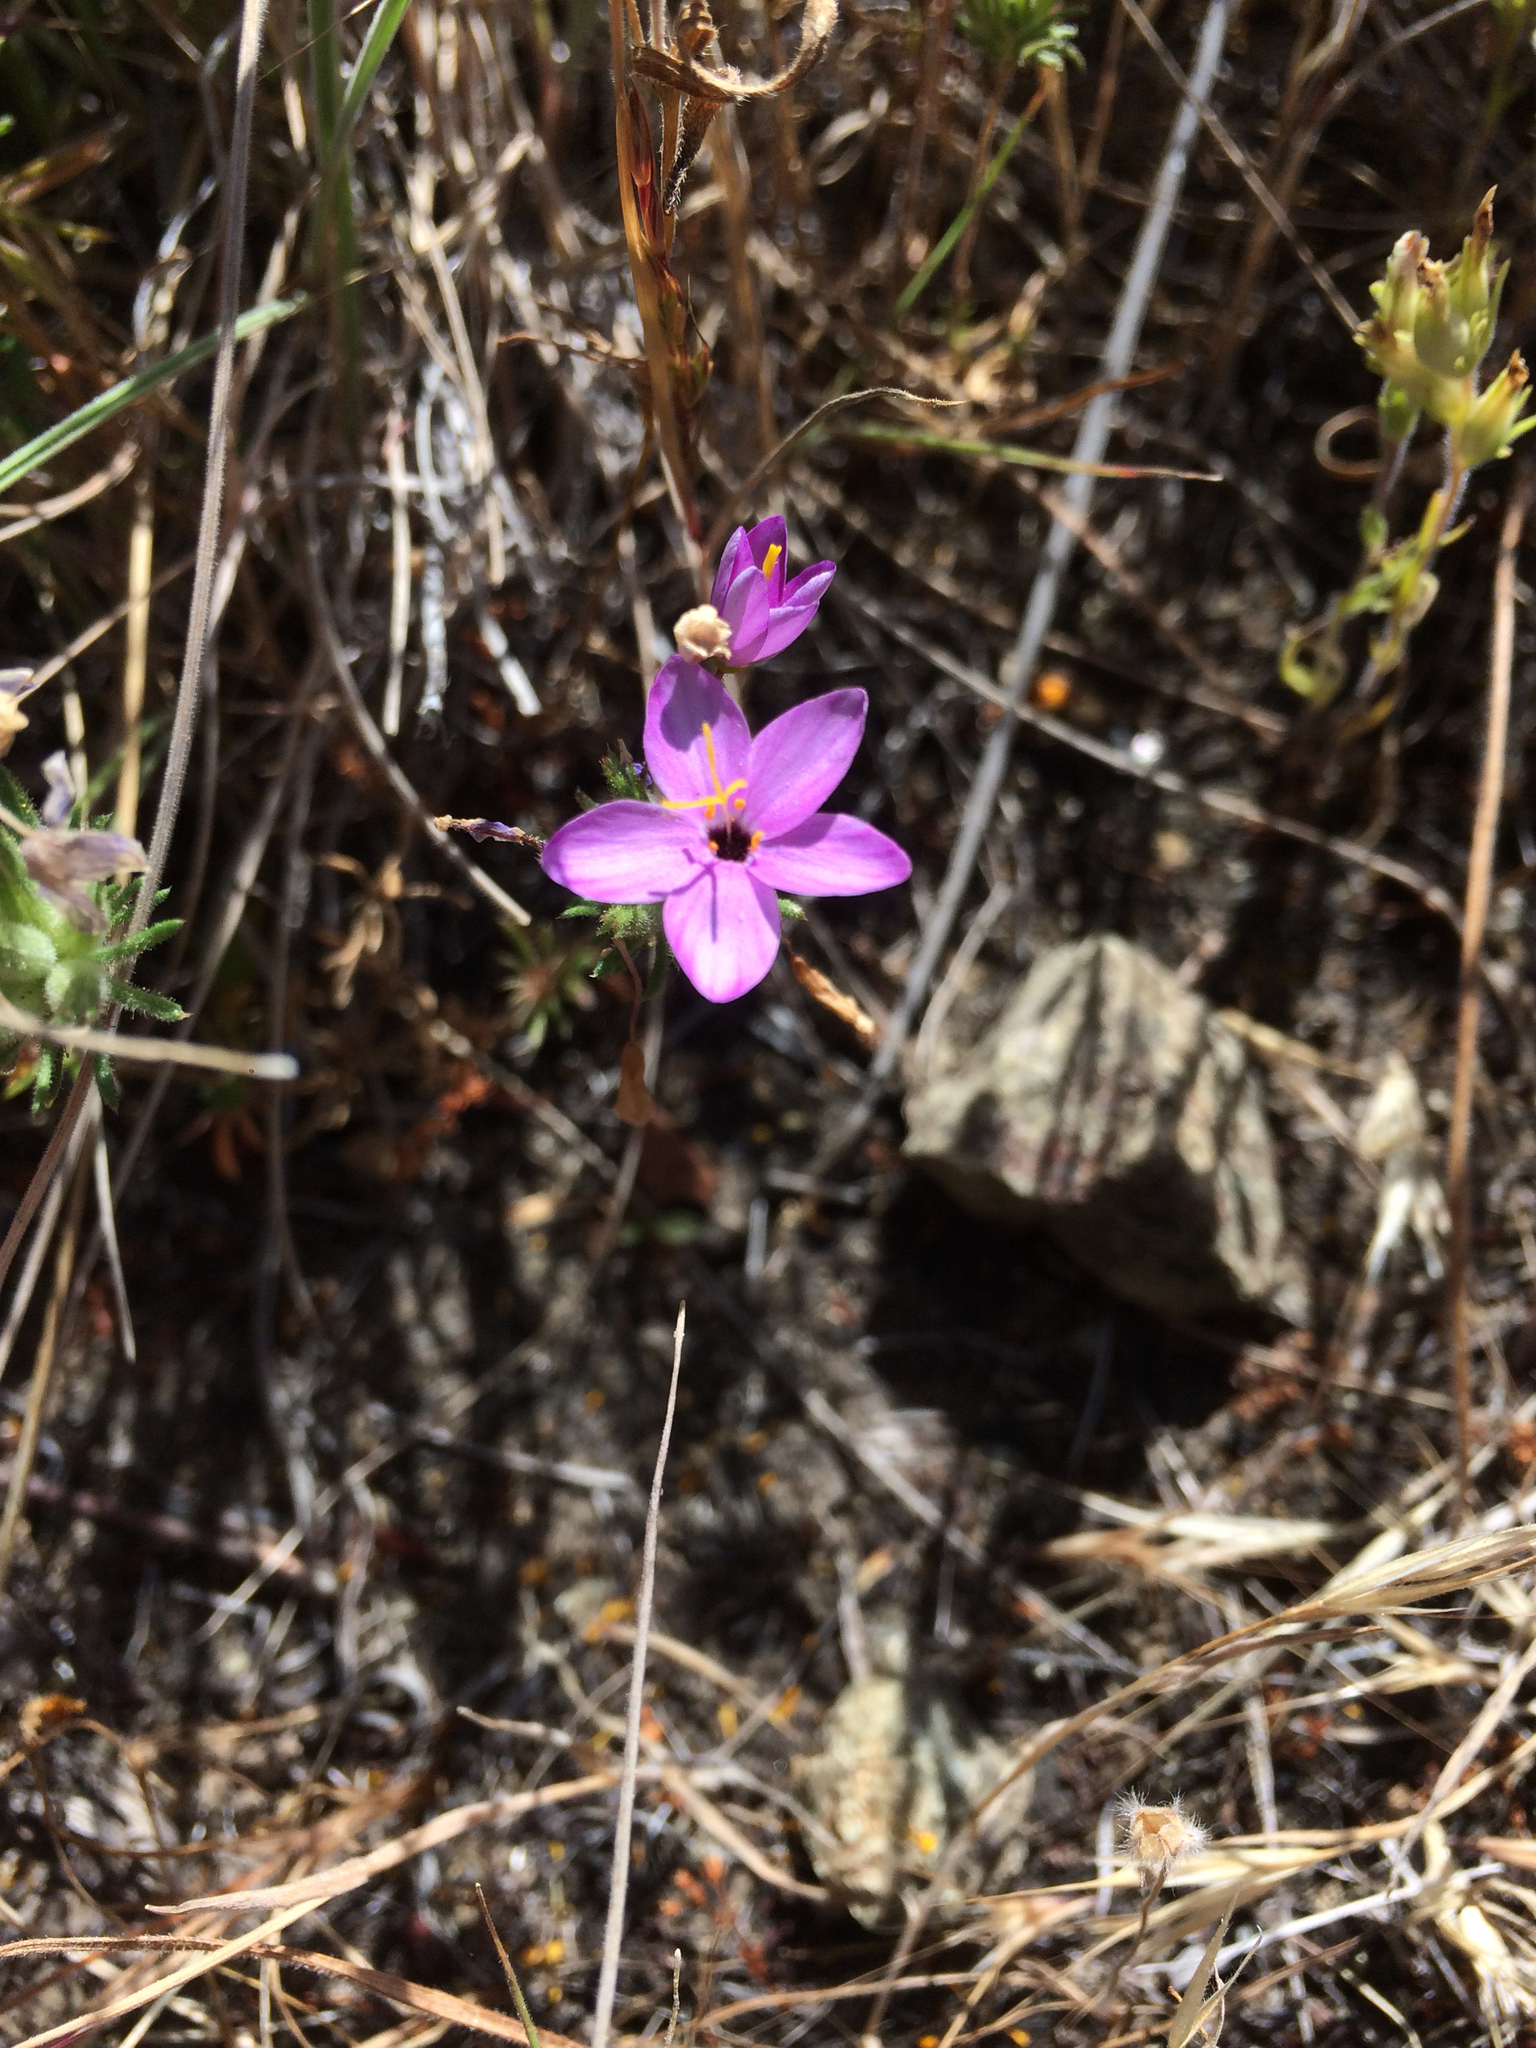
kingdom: Plantae
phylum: Tracheophyta
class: Magnoliopsida
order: Ericales
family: Polemoniaceae
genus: Leptosiphon
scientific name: Leptosiphon parviflorus
